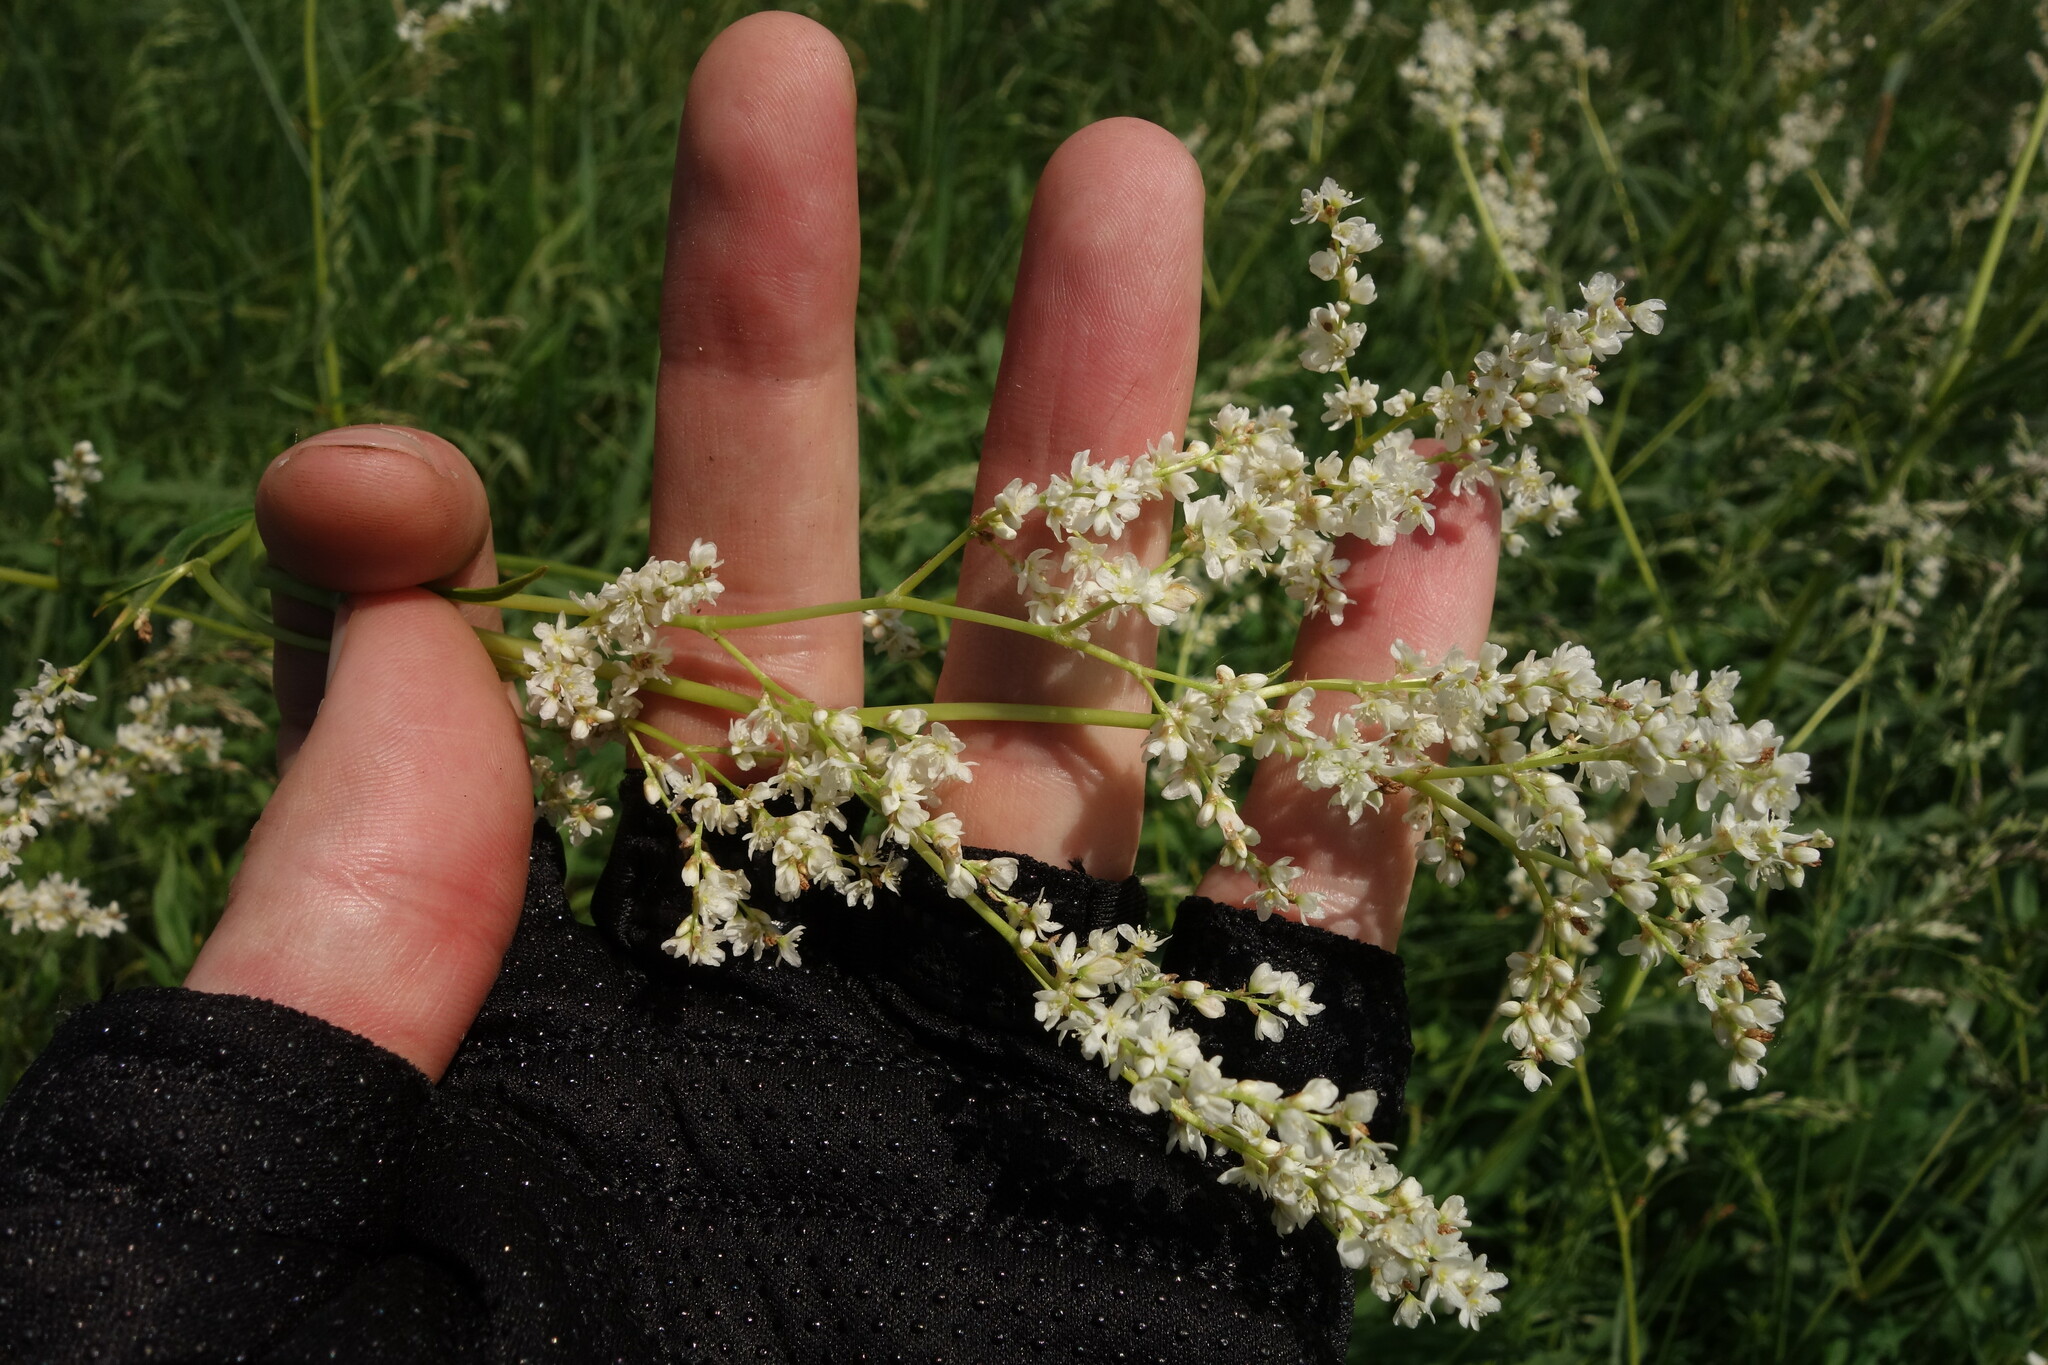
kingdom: Plantae
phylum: Tracheophyta
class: Magnoliopsida
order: Caryophyllales
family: Polygonaceae
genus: Koenigia
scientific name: Koenigia alpina
